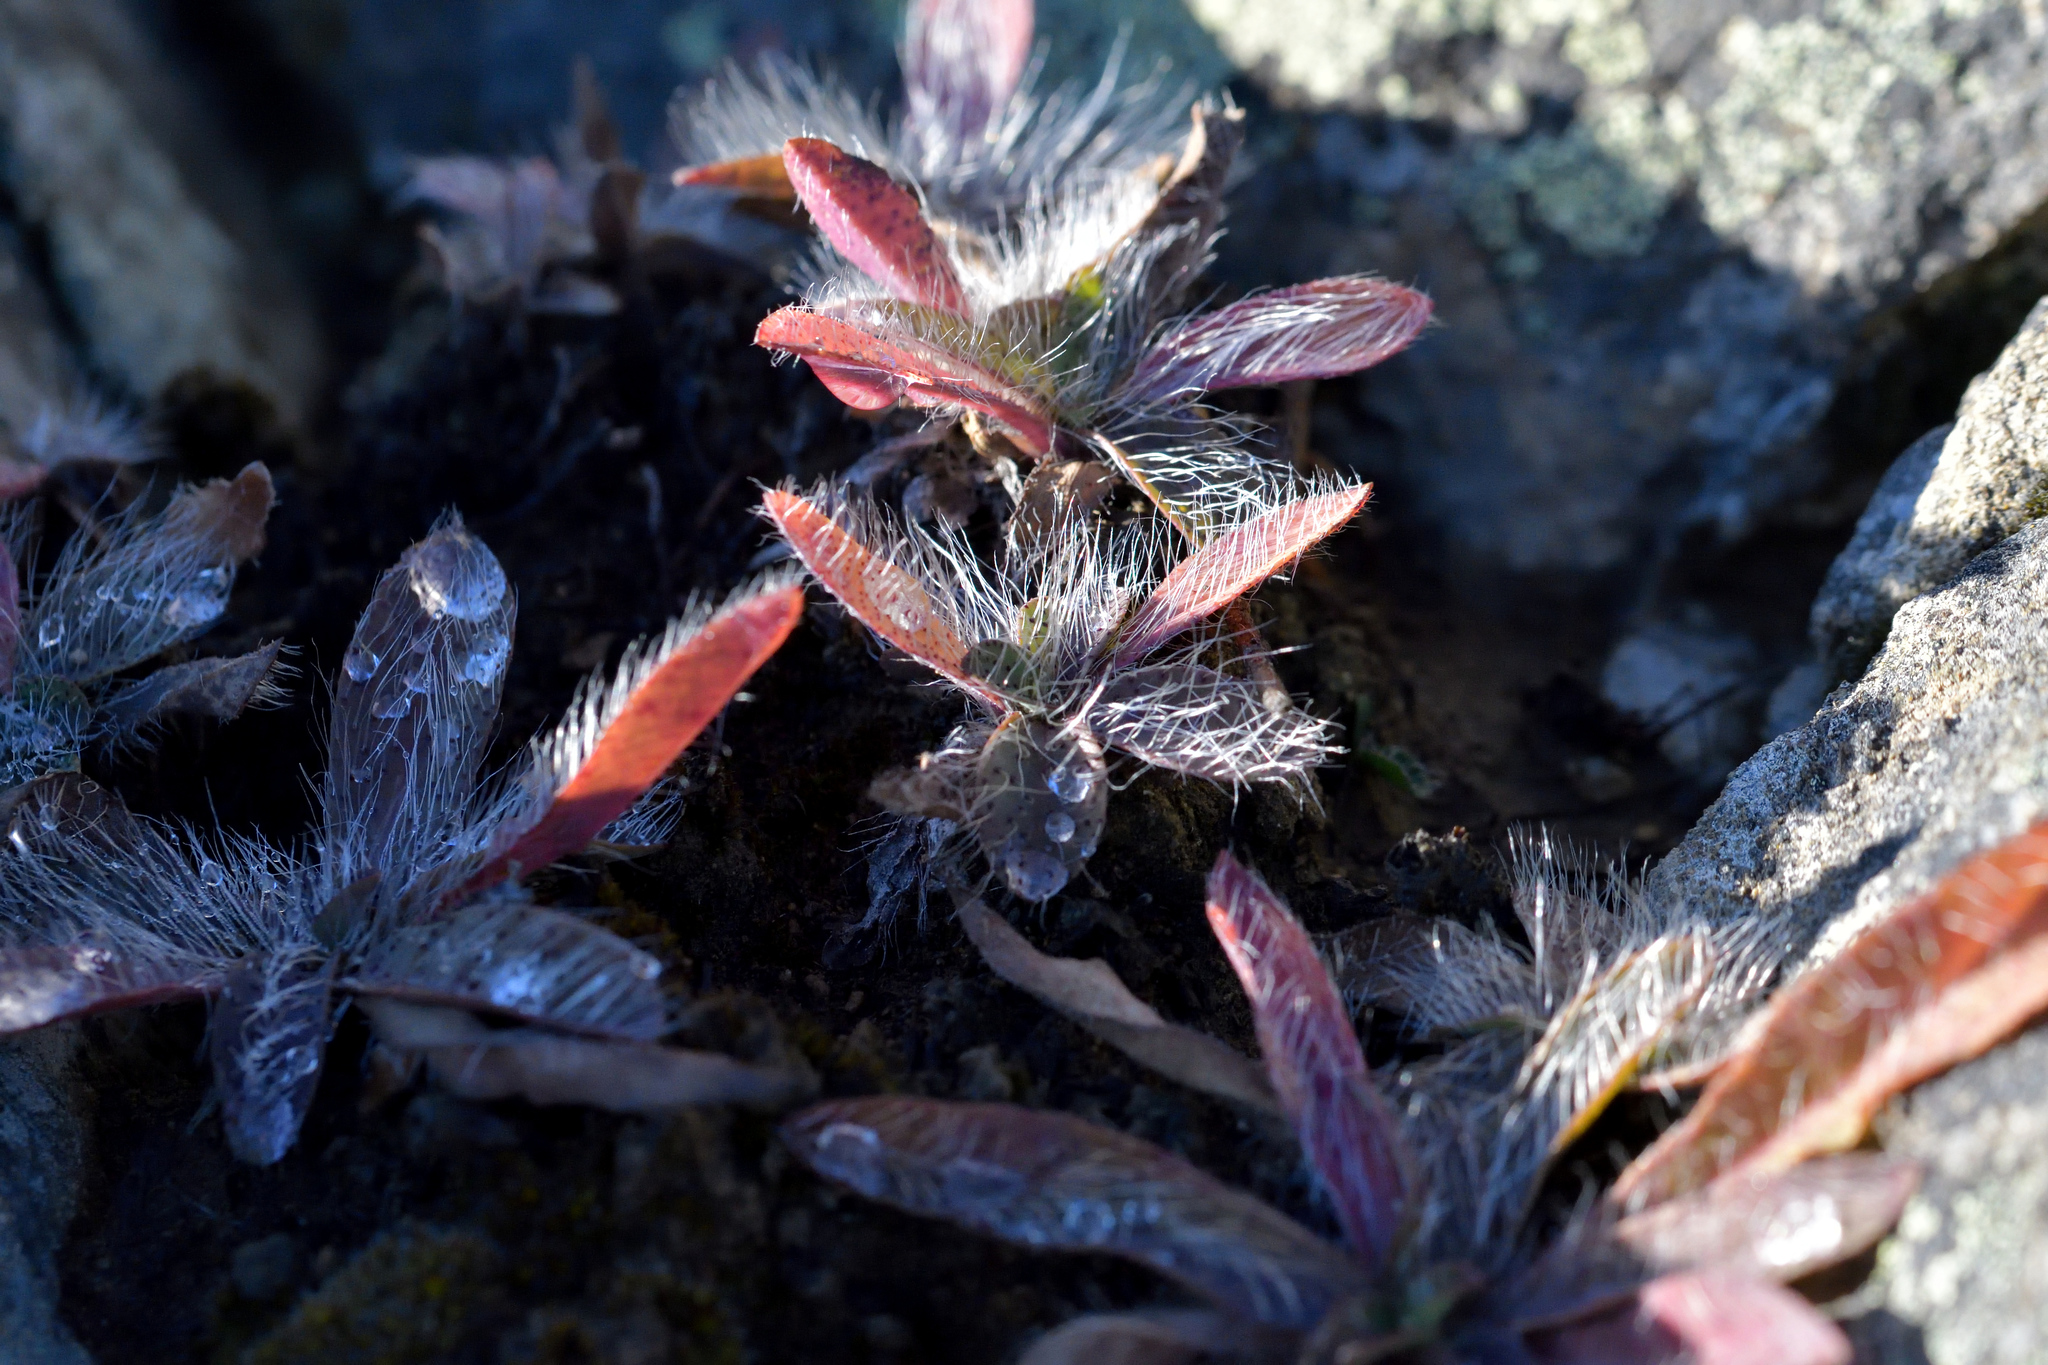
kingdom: Plantae
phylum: Tracheophyta
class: Magnoliopsida
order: Asterales
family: Asteraceae
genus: Pilosella
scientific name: Pilosella officinarum
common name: Mouse-ear hawkweed
